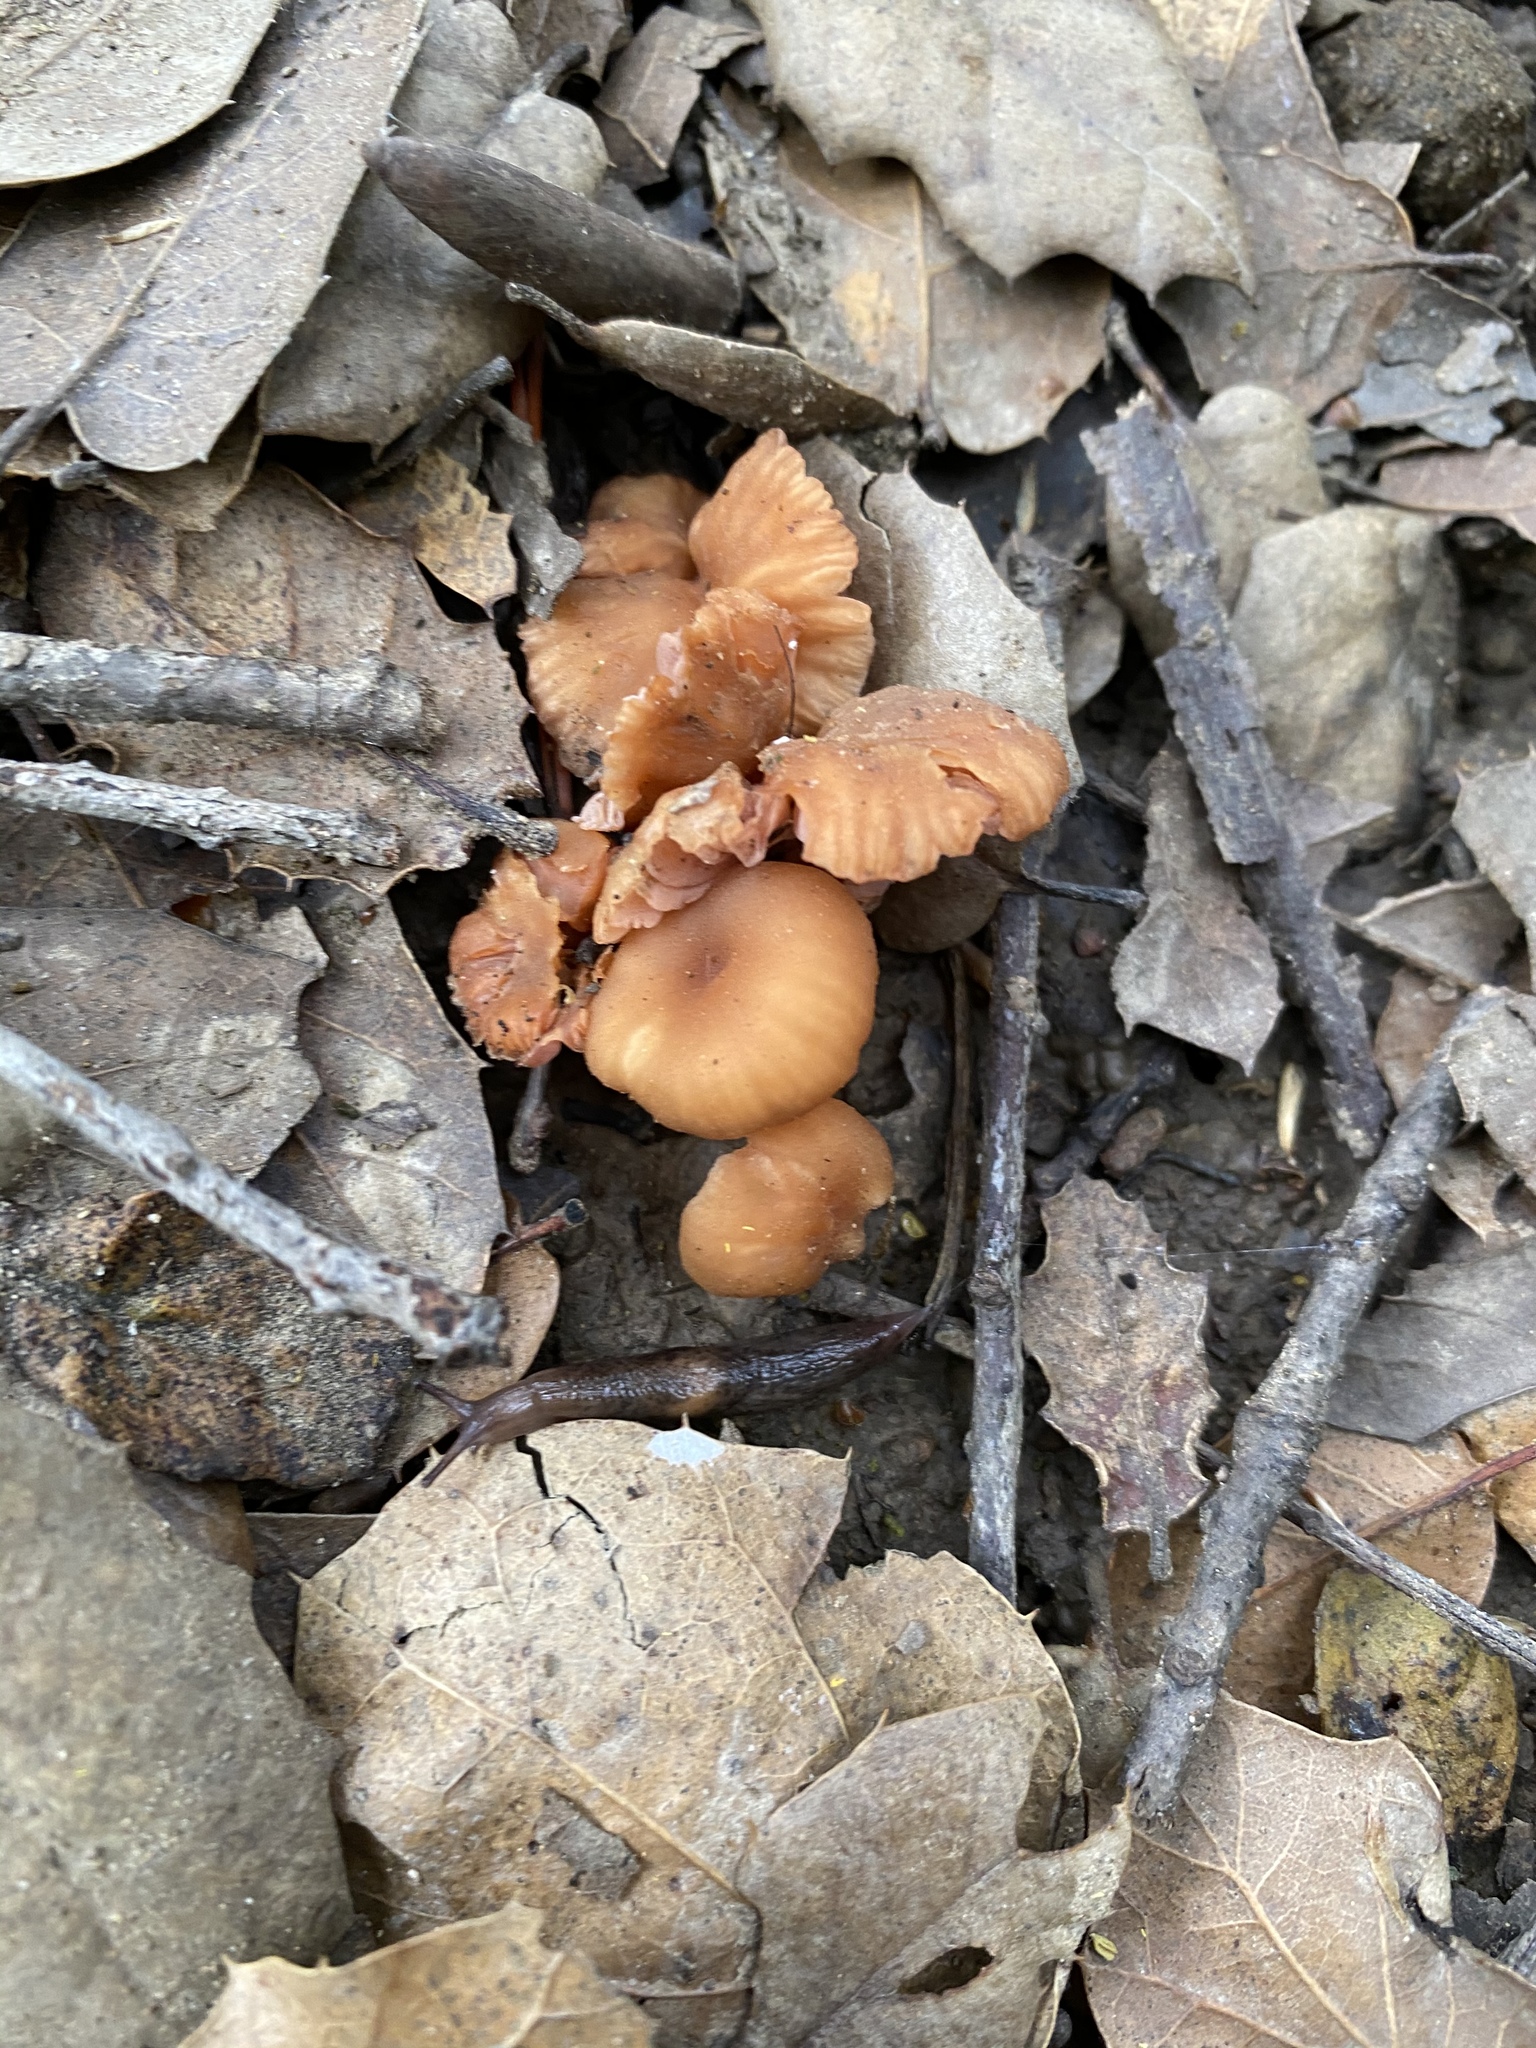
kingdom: Fungi
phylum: Basidiomycota
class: Agaricomycetes
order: Agaricales
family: Hydnangiaceae
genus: Laccaria
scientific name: Laccaria laccata
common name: Deceiver
